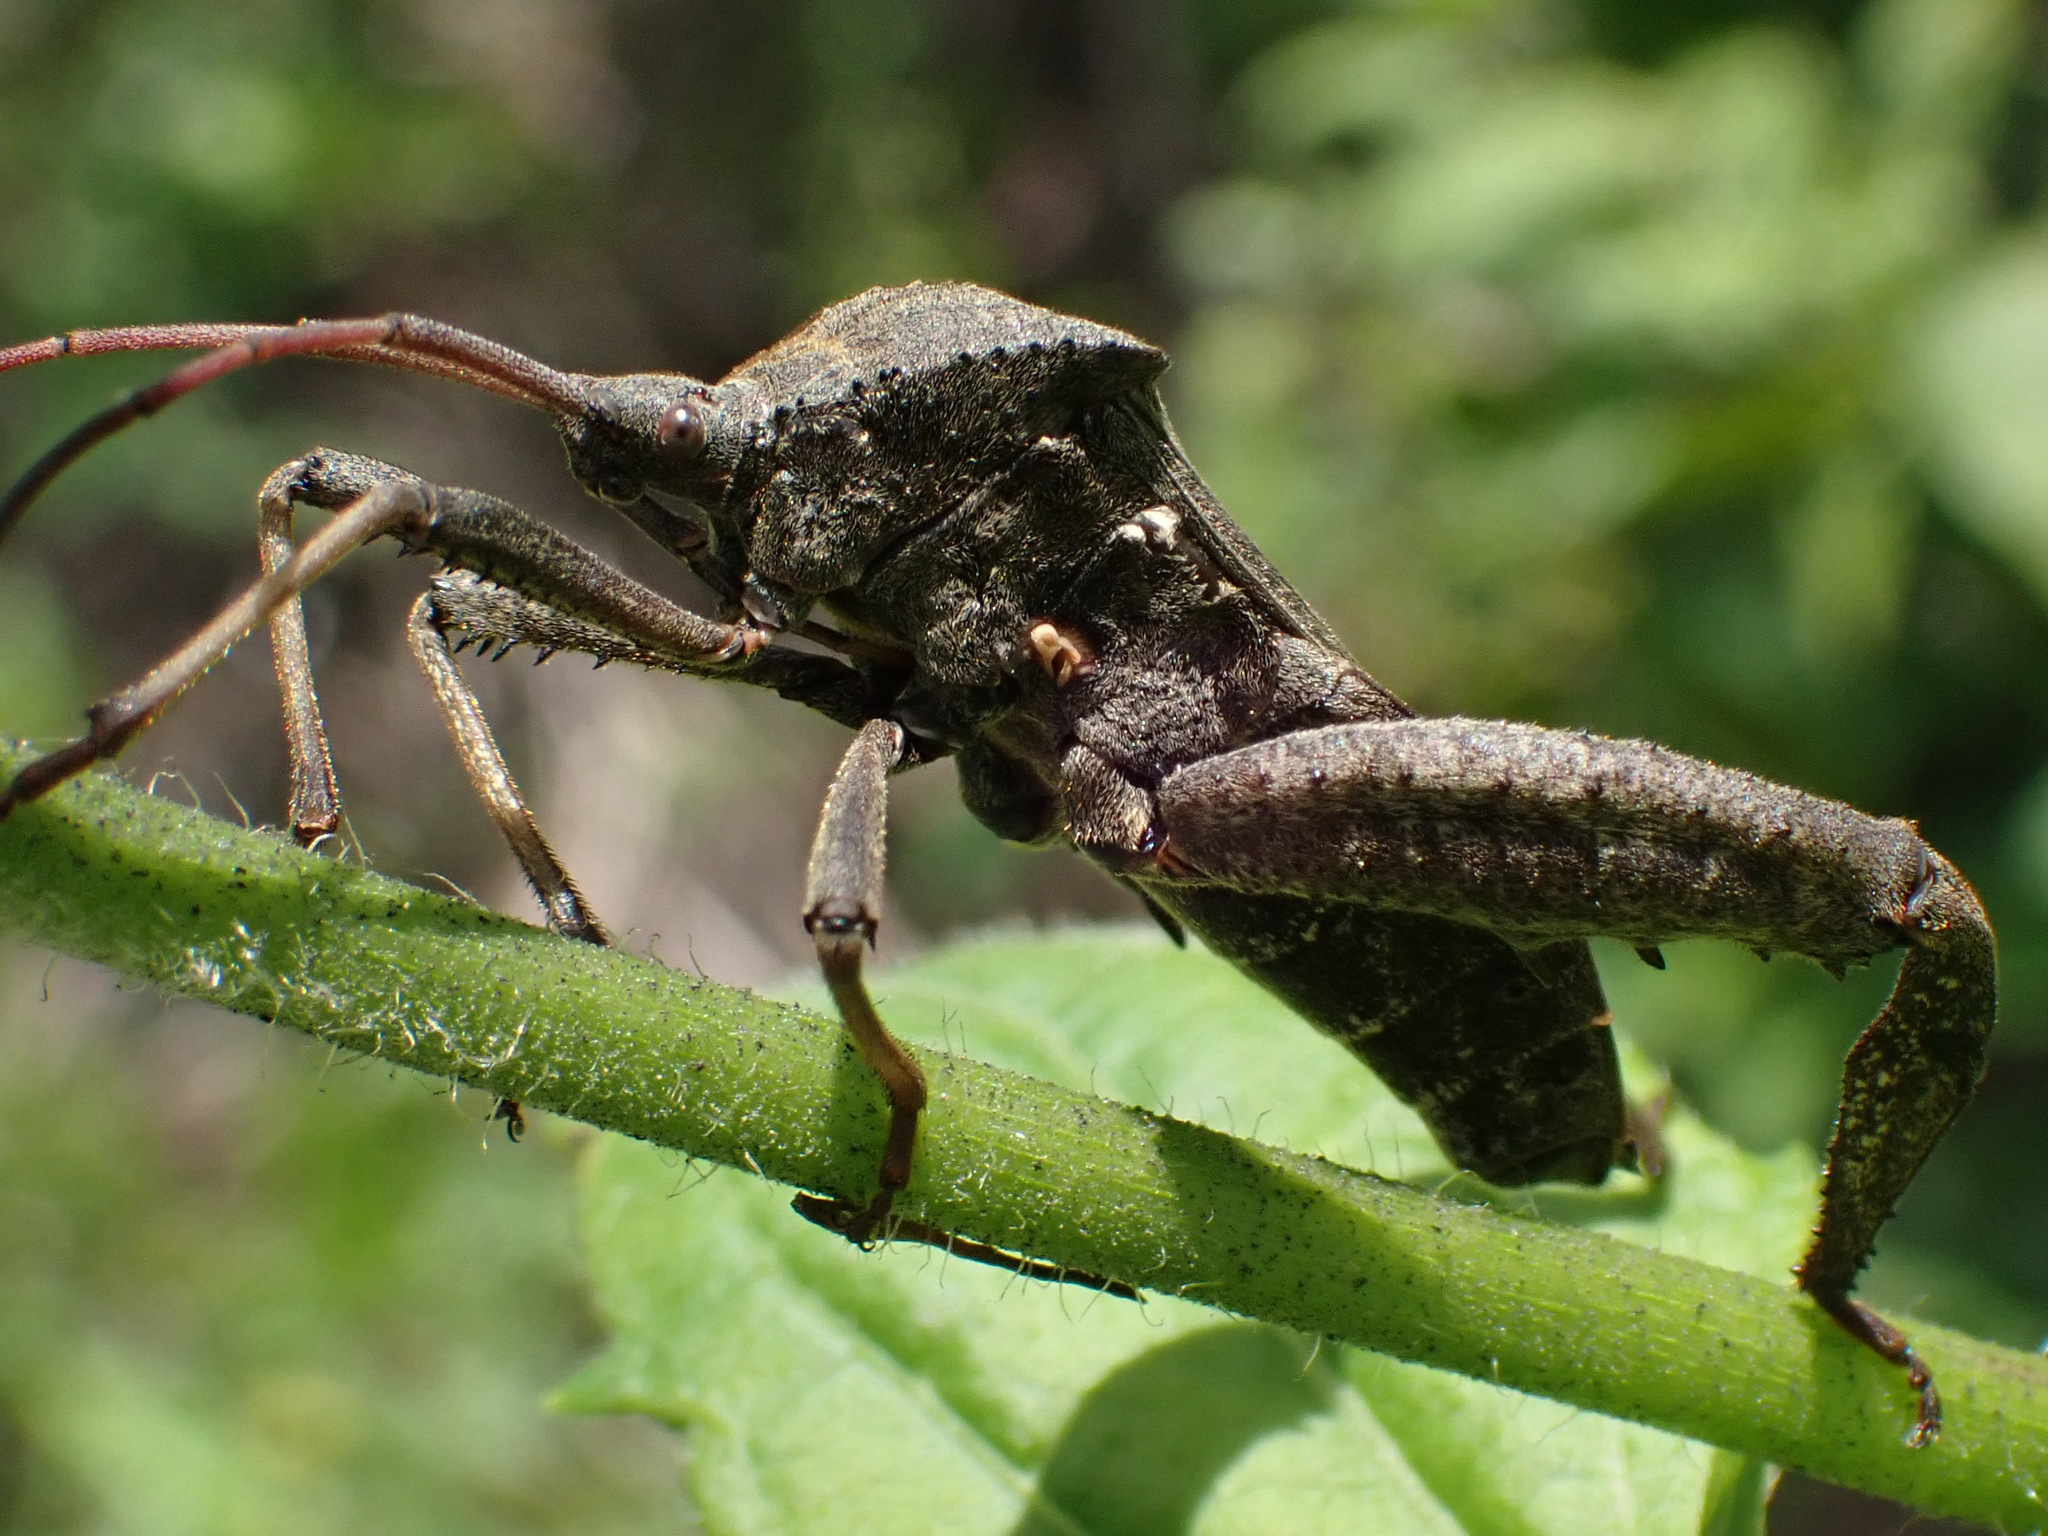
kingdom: Animalia
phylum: Arthropoda
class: Insecta
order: Hemiptera
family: Coreidae
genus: Acanthocephala
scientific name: Acanthocephala femorata
